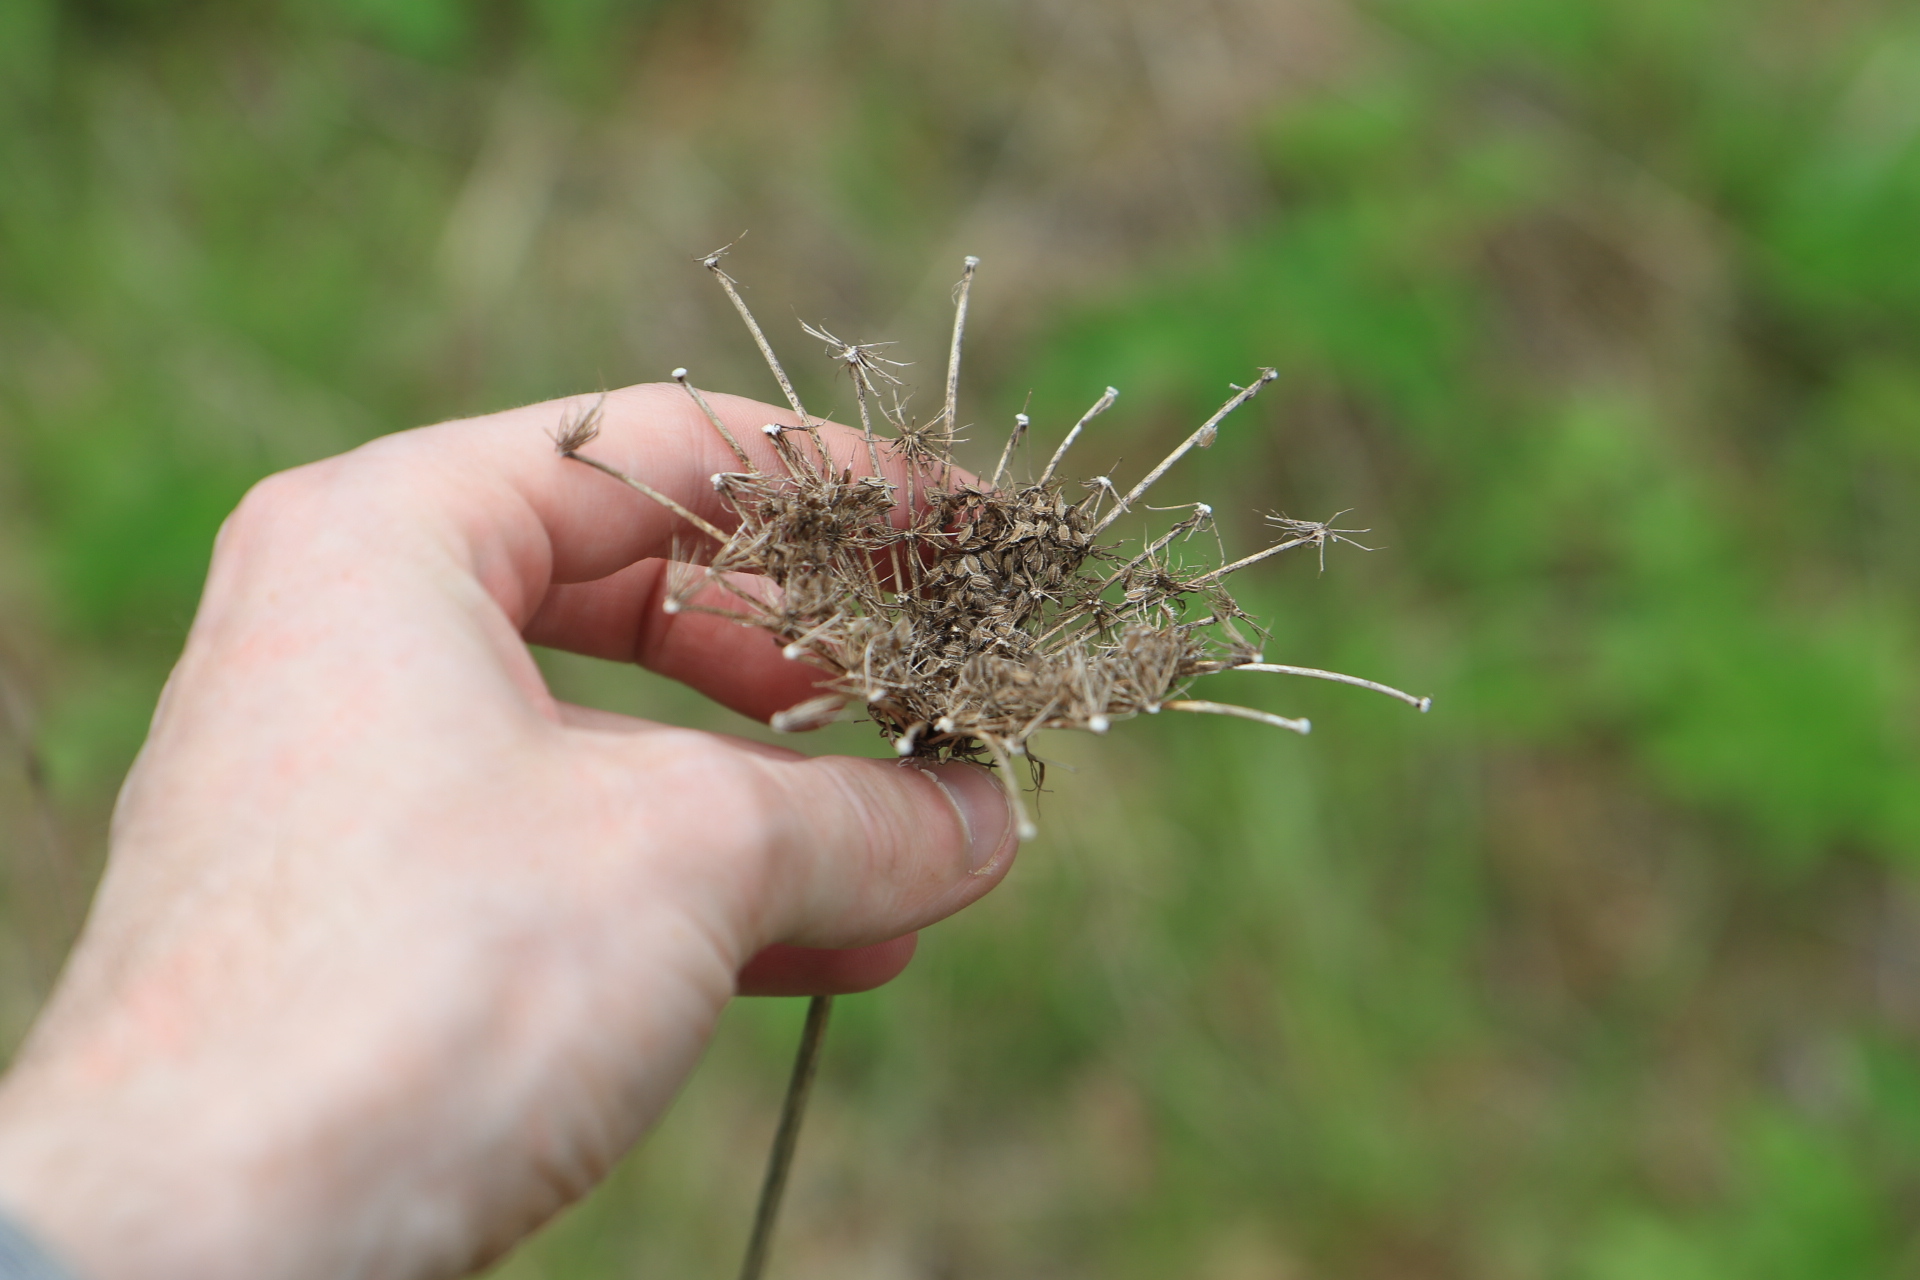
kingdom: Plantae
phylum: Tracheophyta
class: Magnoliopsida
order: Apiales
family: Apiaceae
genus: Daucus
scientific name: Daucus carota
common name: Wild carrot
